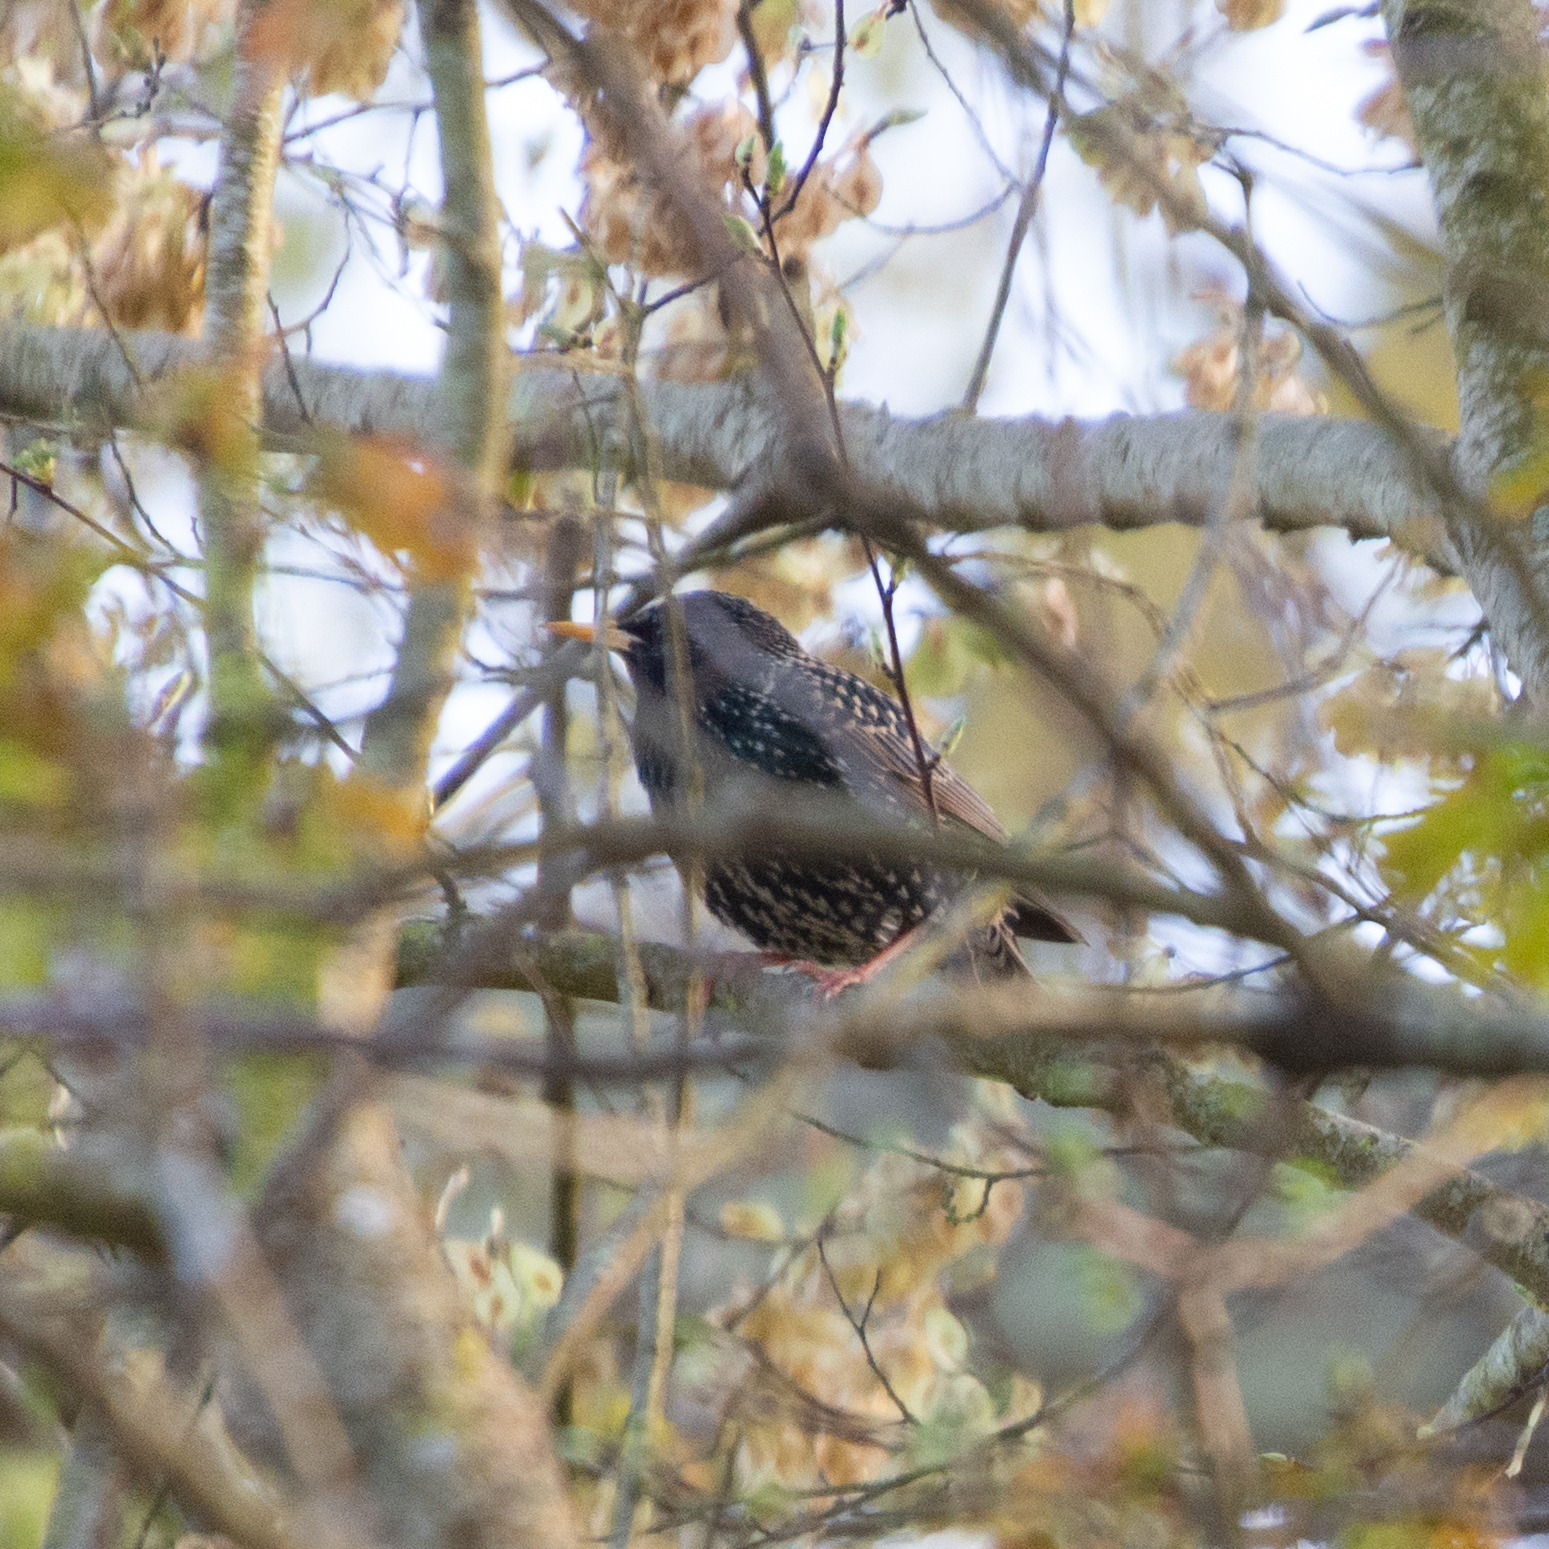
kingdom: Animalia
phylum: Chordata
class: Aves
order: Passeriformes
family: Sturnidae
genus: Sturnus
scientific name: Sturnus vulgaris
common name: Common starling
